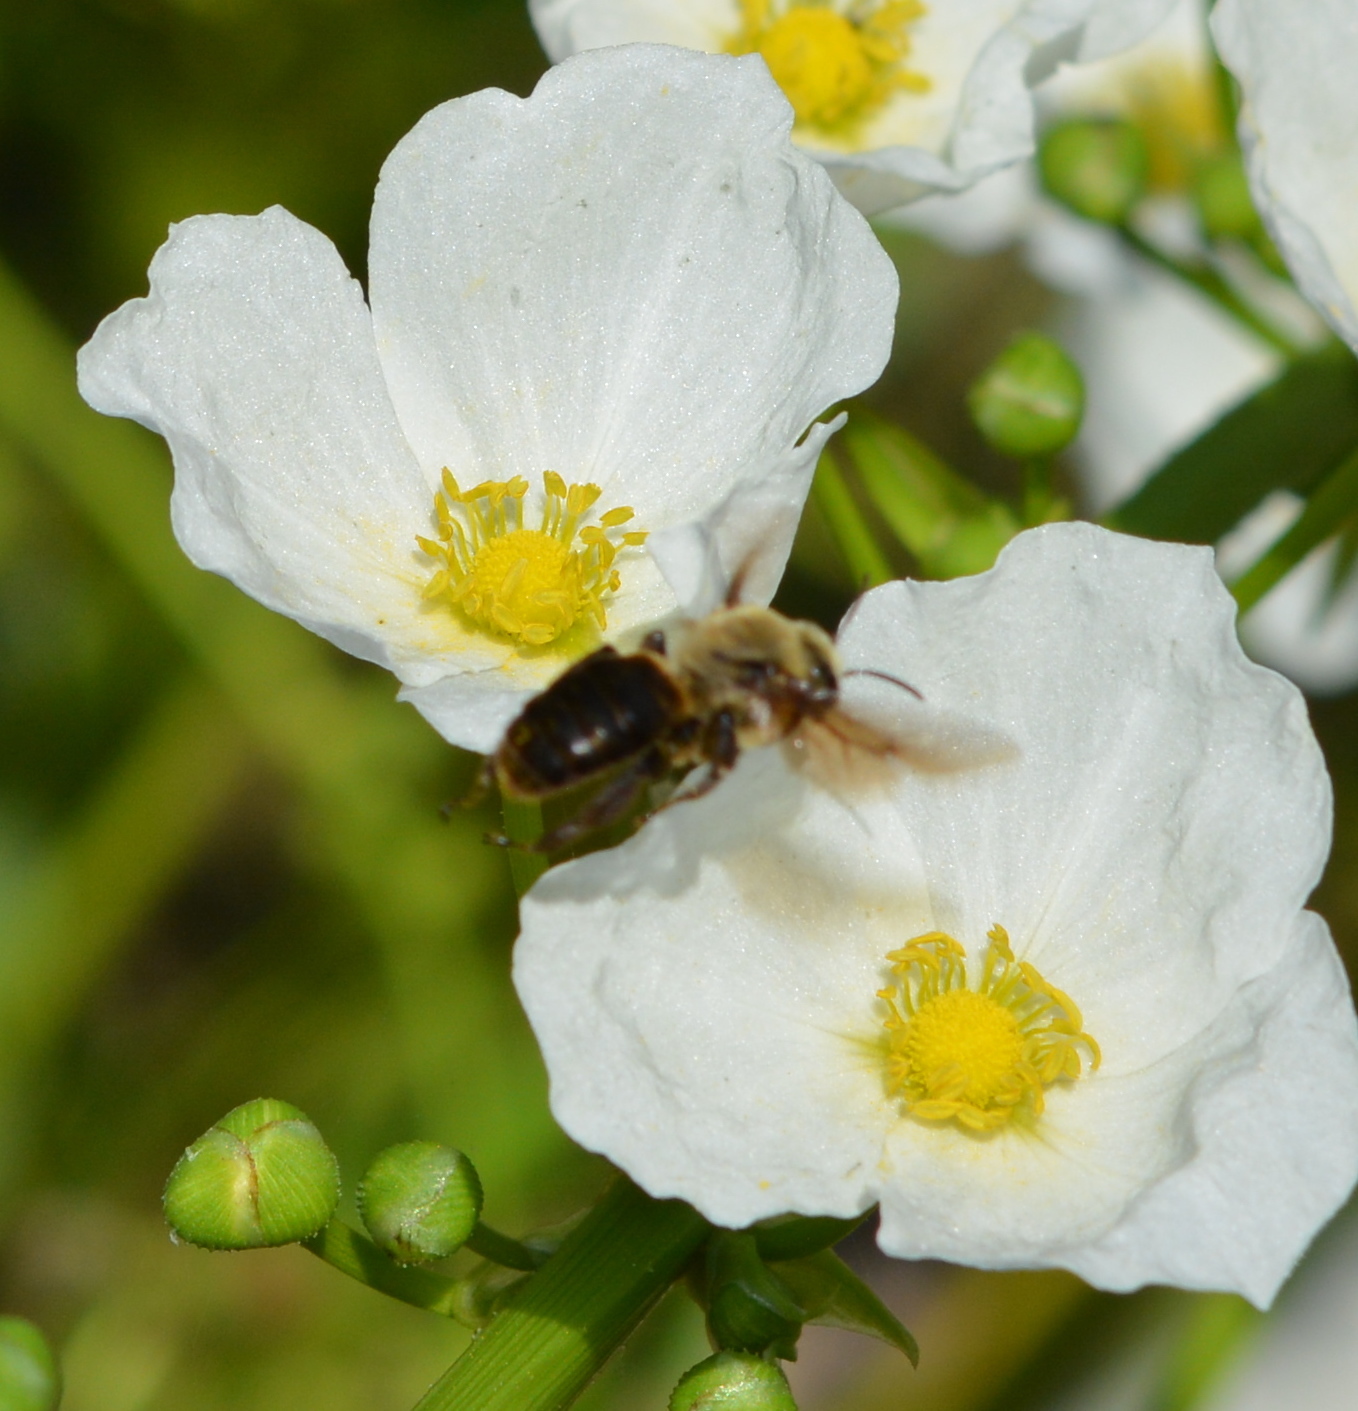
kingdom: Animalia
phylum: Arthropoda
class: Insecta
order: Hymenoptera
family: Apidae
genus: Ptilothrix
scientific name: Ptilothrix bombiformis
